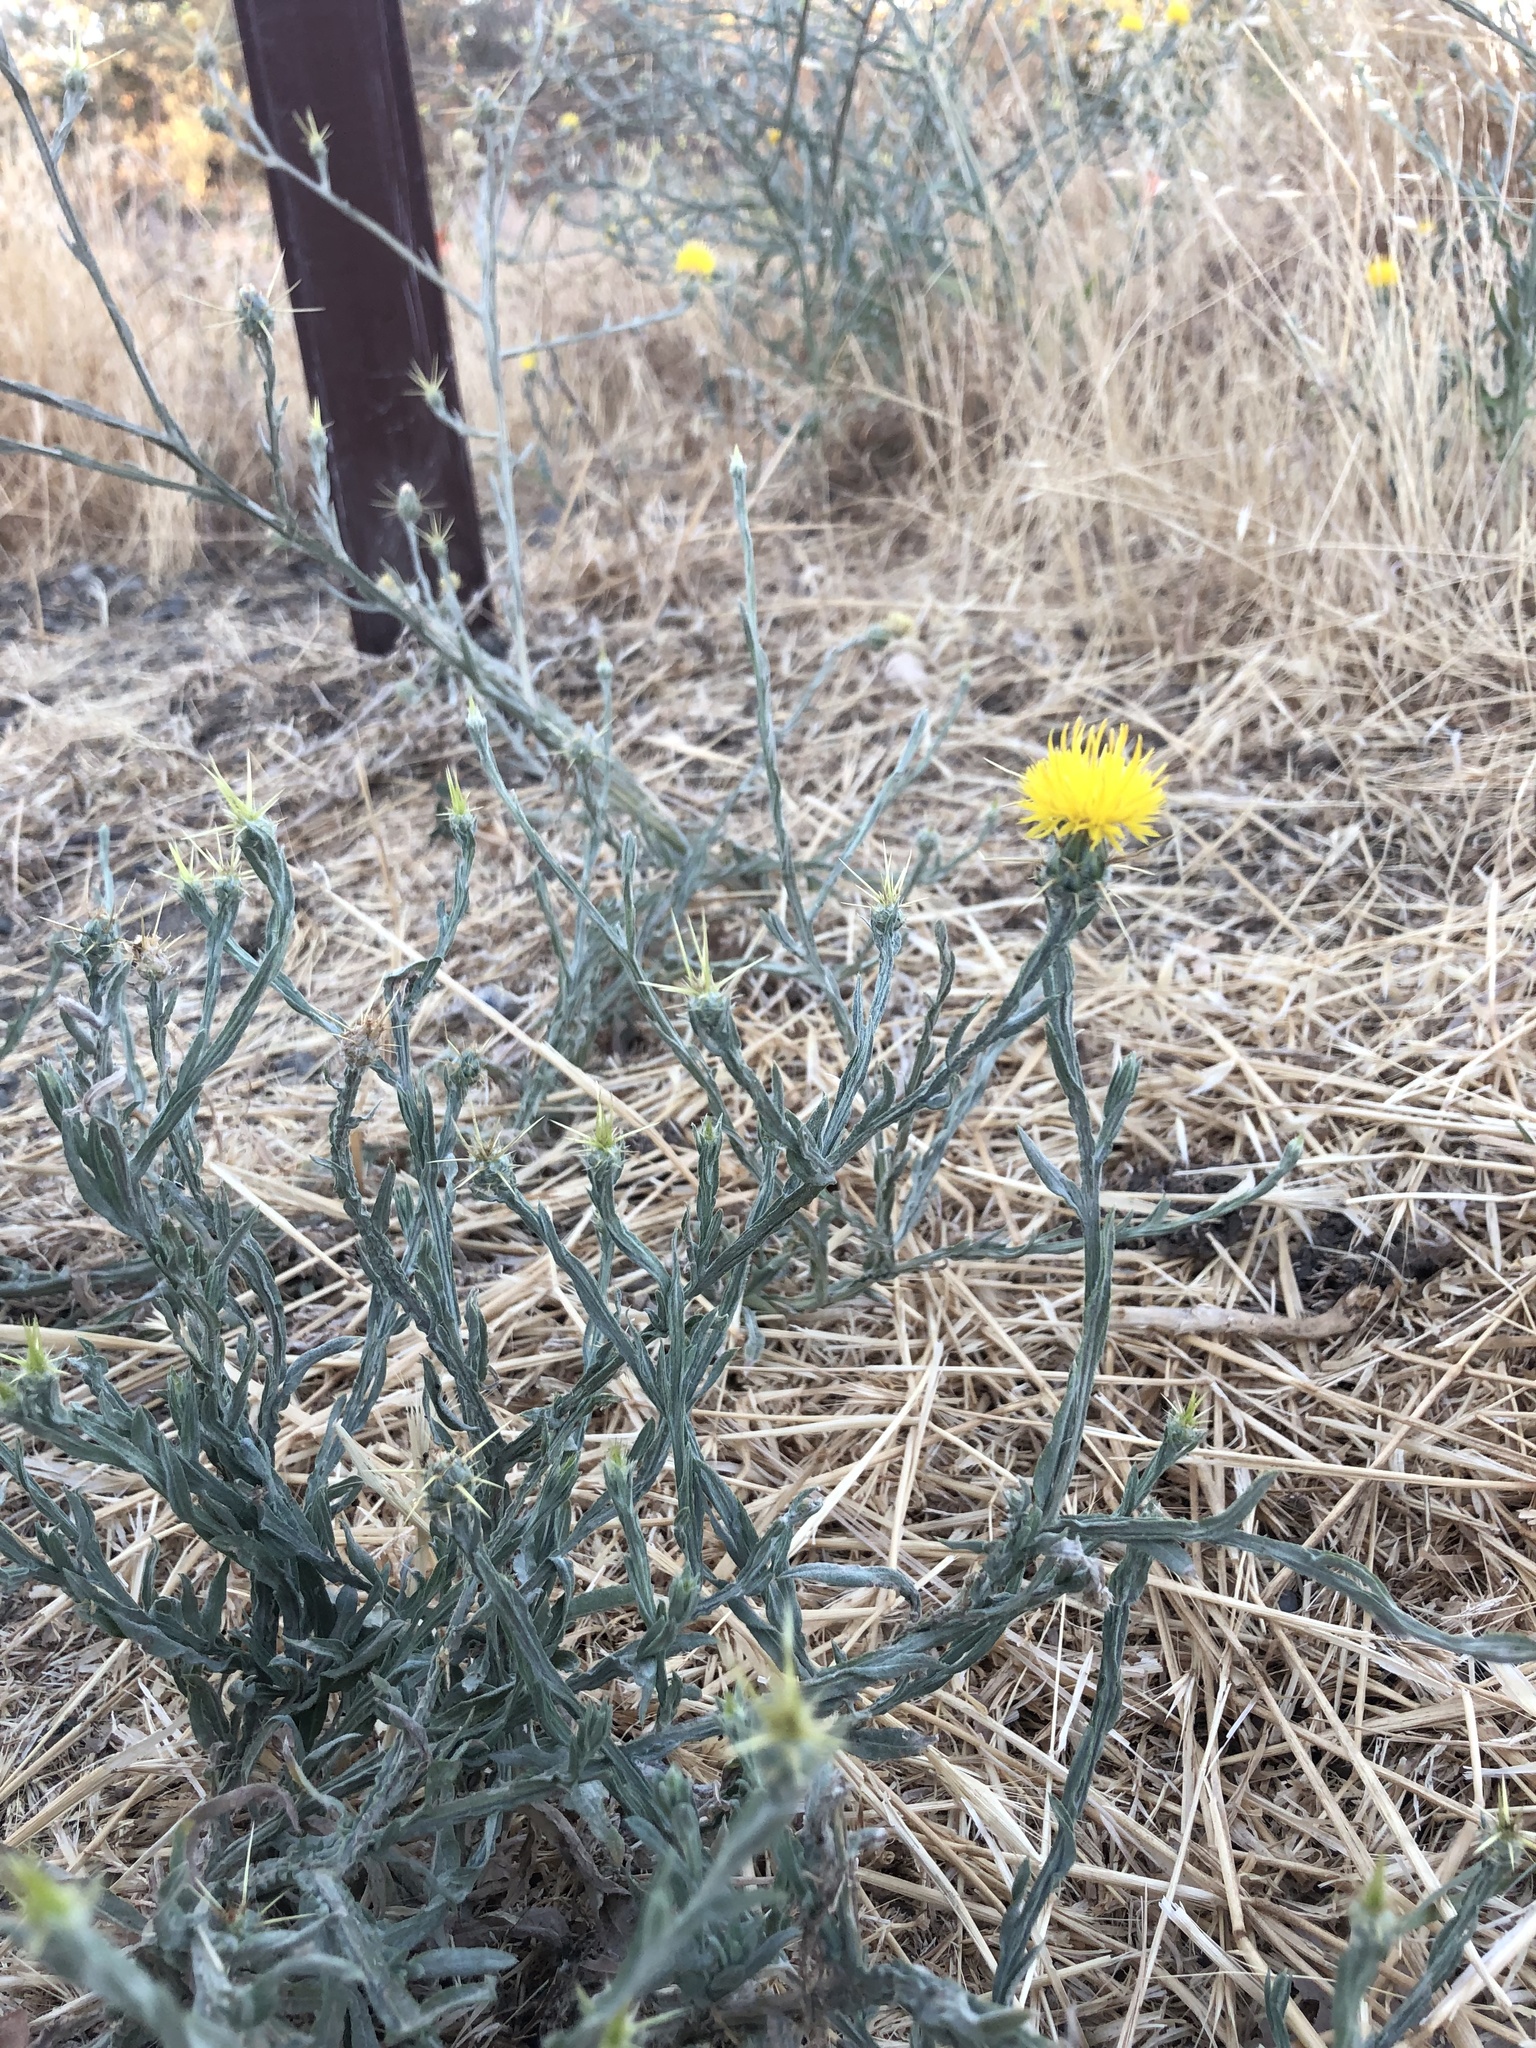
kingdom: Plantae
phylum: Tracheophyta
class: Magnoliopsida
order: Asterales
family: Asteraceae
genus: Centaurea
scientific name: Centaurea solstitialis
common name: Yellow star-thistle
